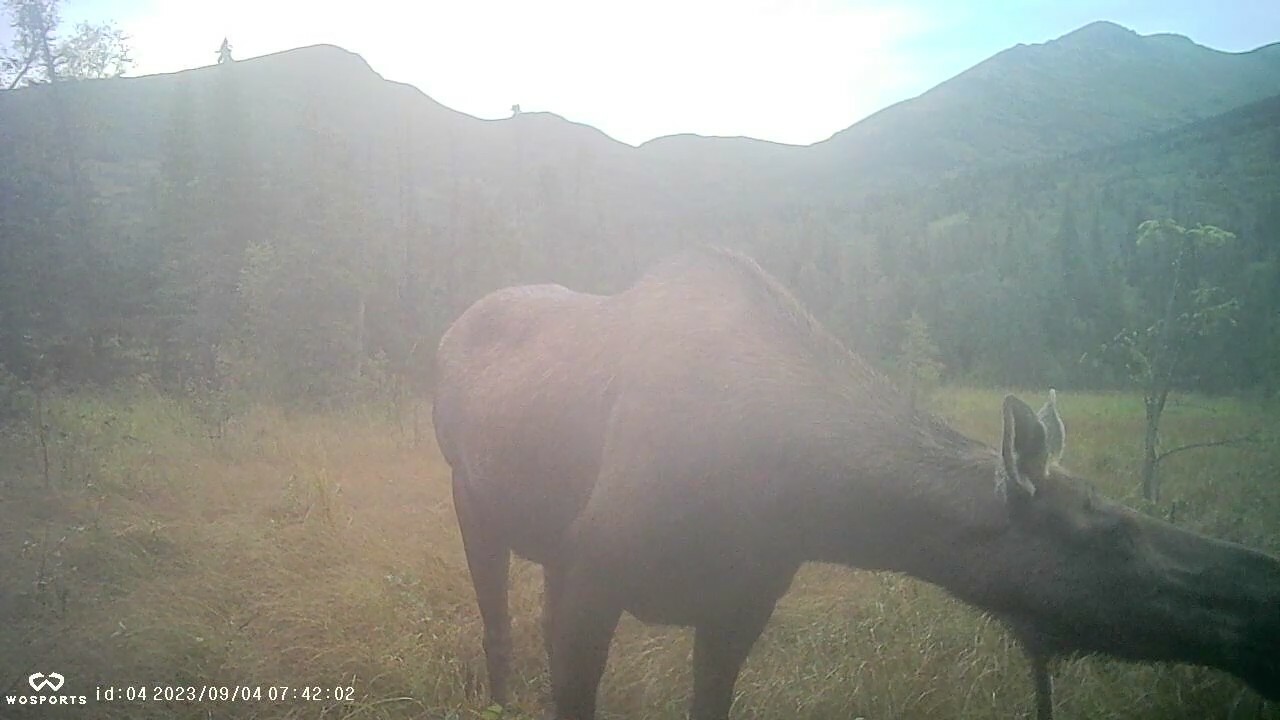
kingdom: Animalia
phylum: Chordata
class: Mammalia
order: Artiodactyla
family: Cervidae
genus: Alces
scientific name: Alces alces
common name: Moose
